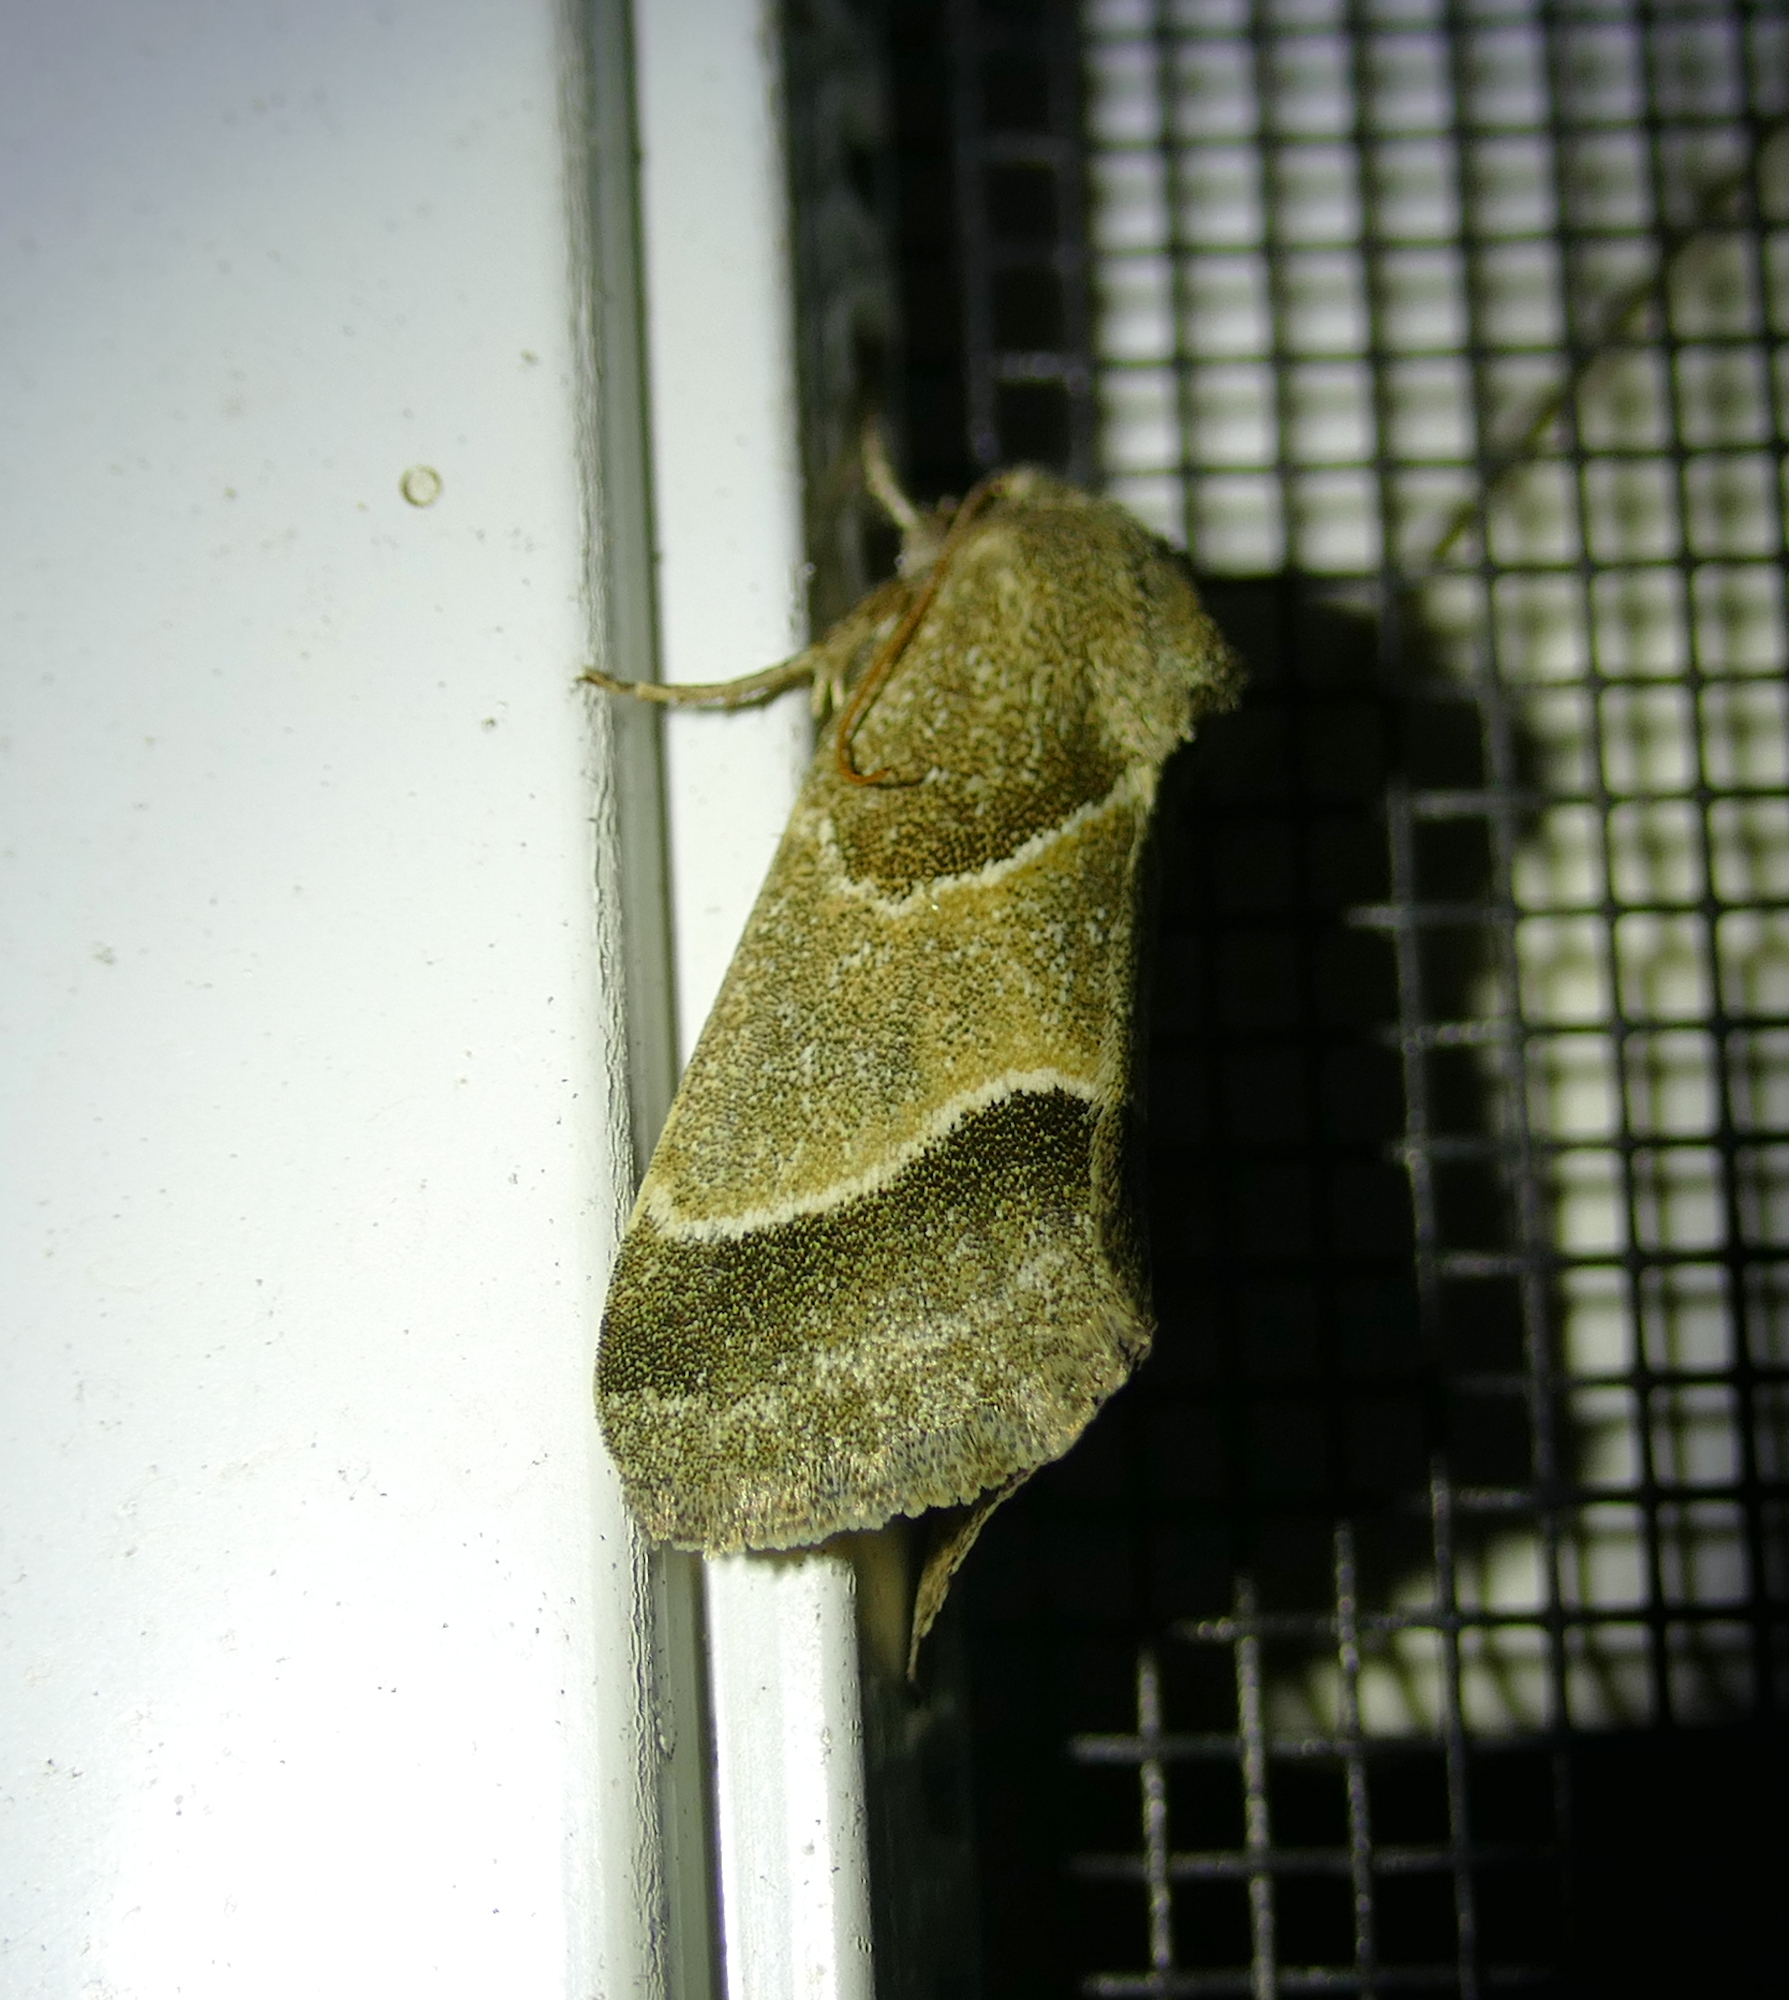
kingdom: Animalia
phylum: Arthropoda
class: Insecta
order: Lepidoptera
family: Noctuidae
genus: Schinia
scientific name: Schinia gracilenta
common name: Slender flower moth
